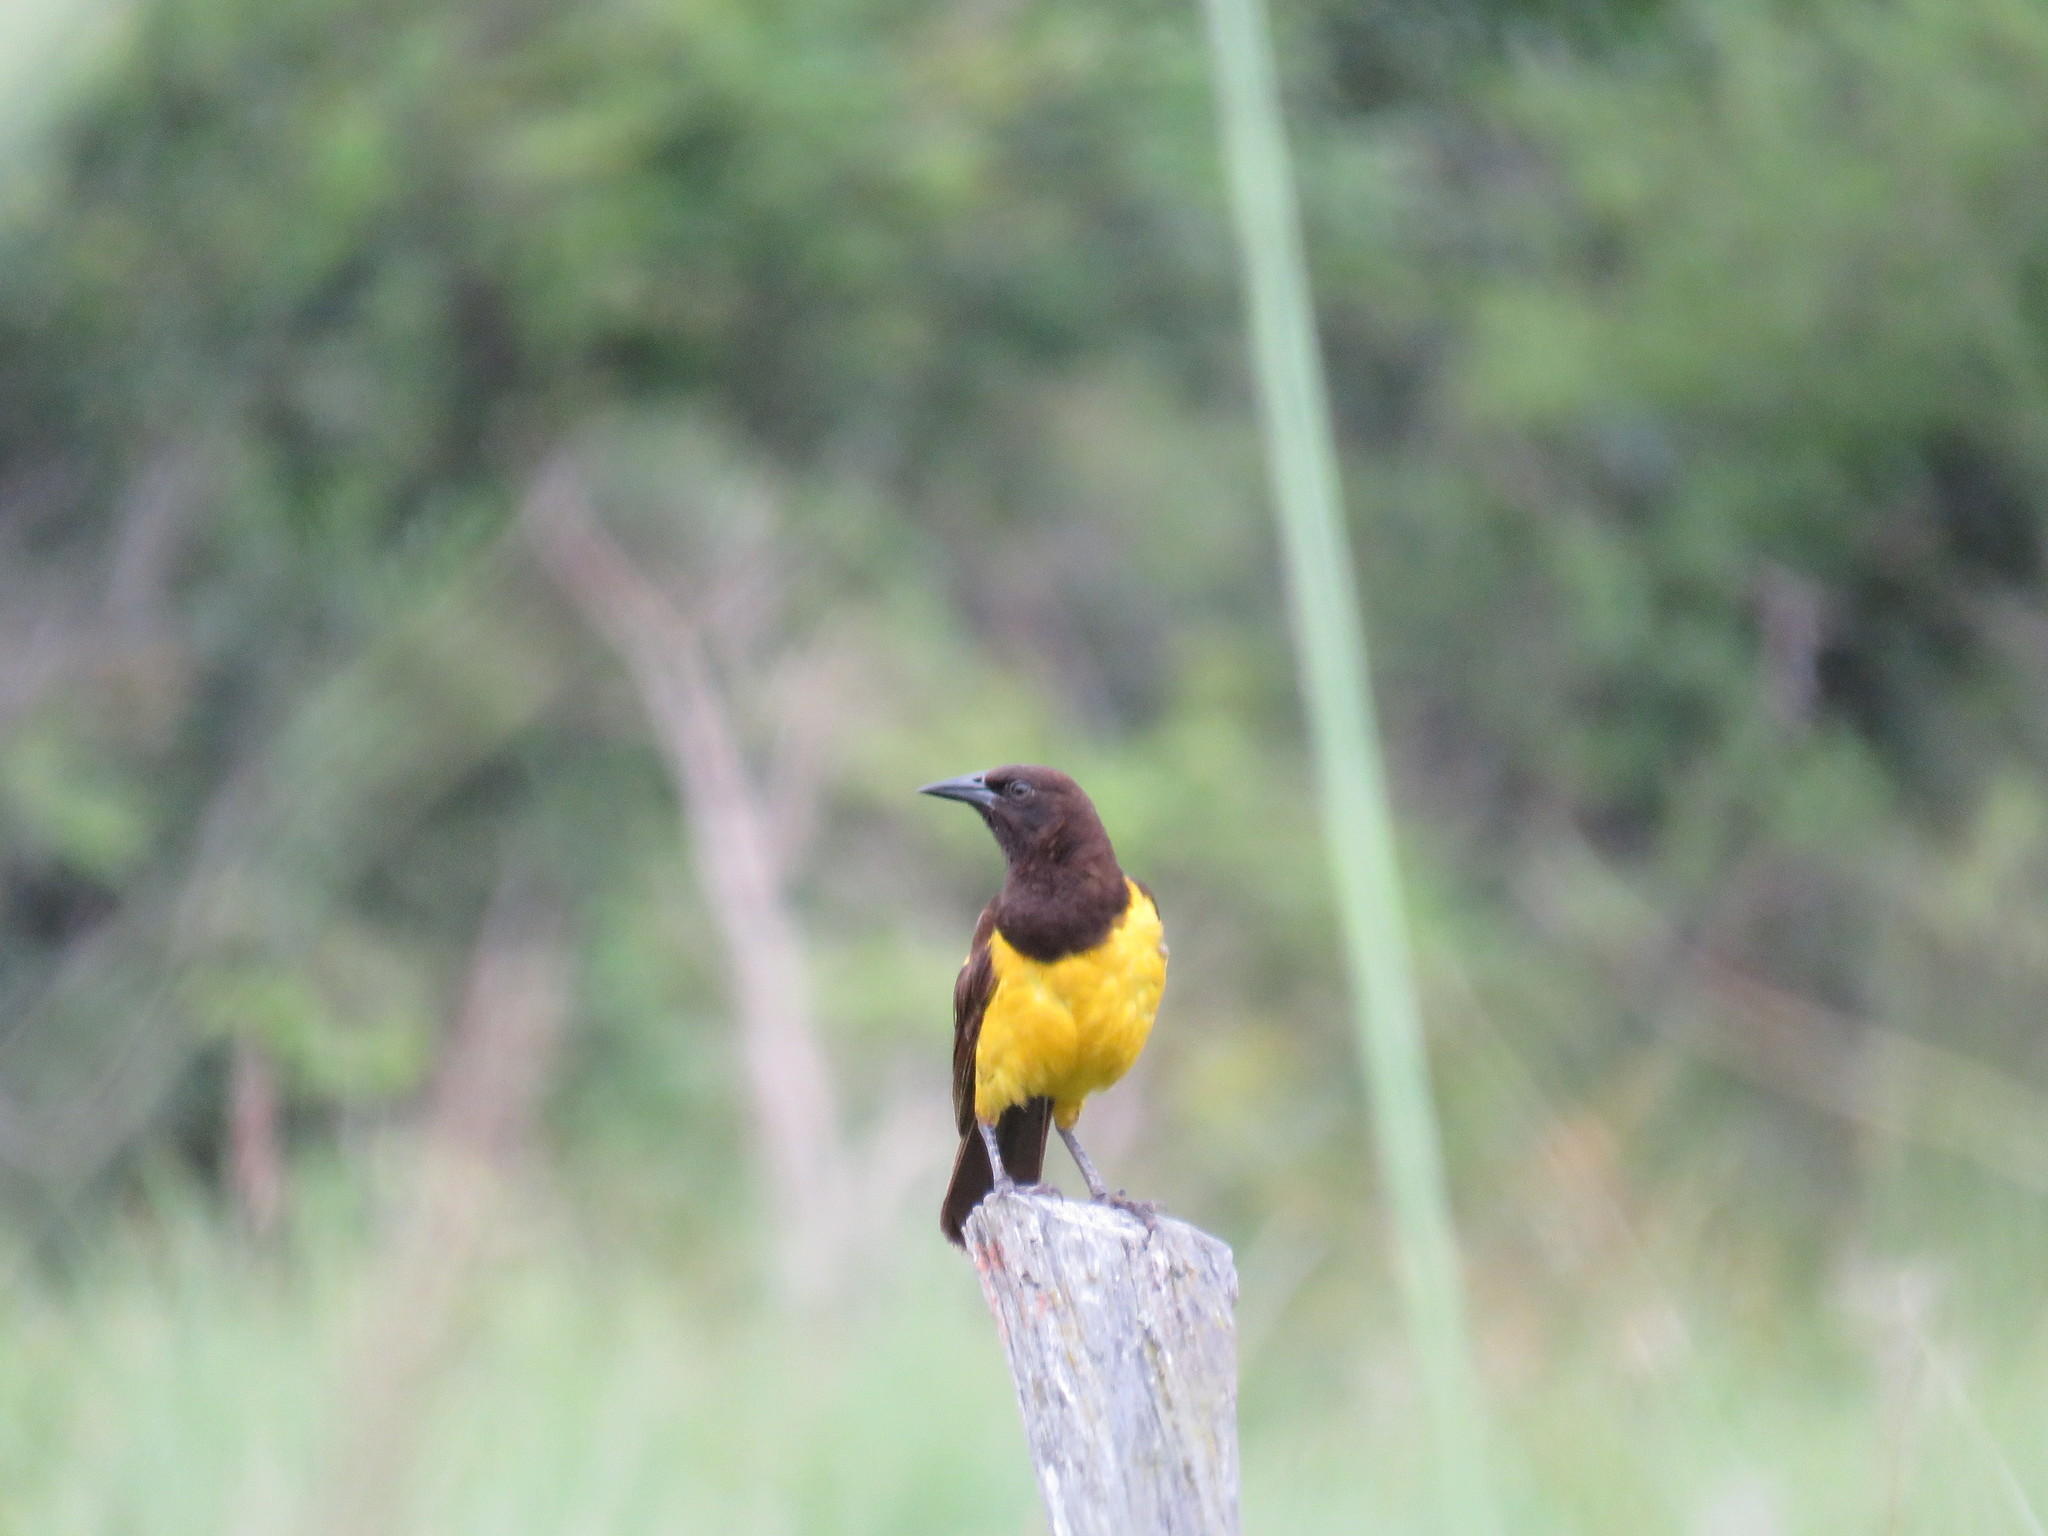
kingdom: Animalia
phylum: Chordata
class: Aves
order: Passeriformes
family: Icteridae
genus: Pseudoleistes
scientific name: Pseudoleistes guirahuro
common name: Yellow-rumped marshbird
